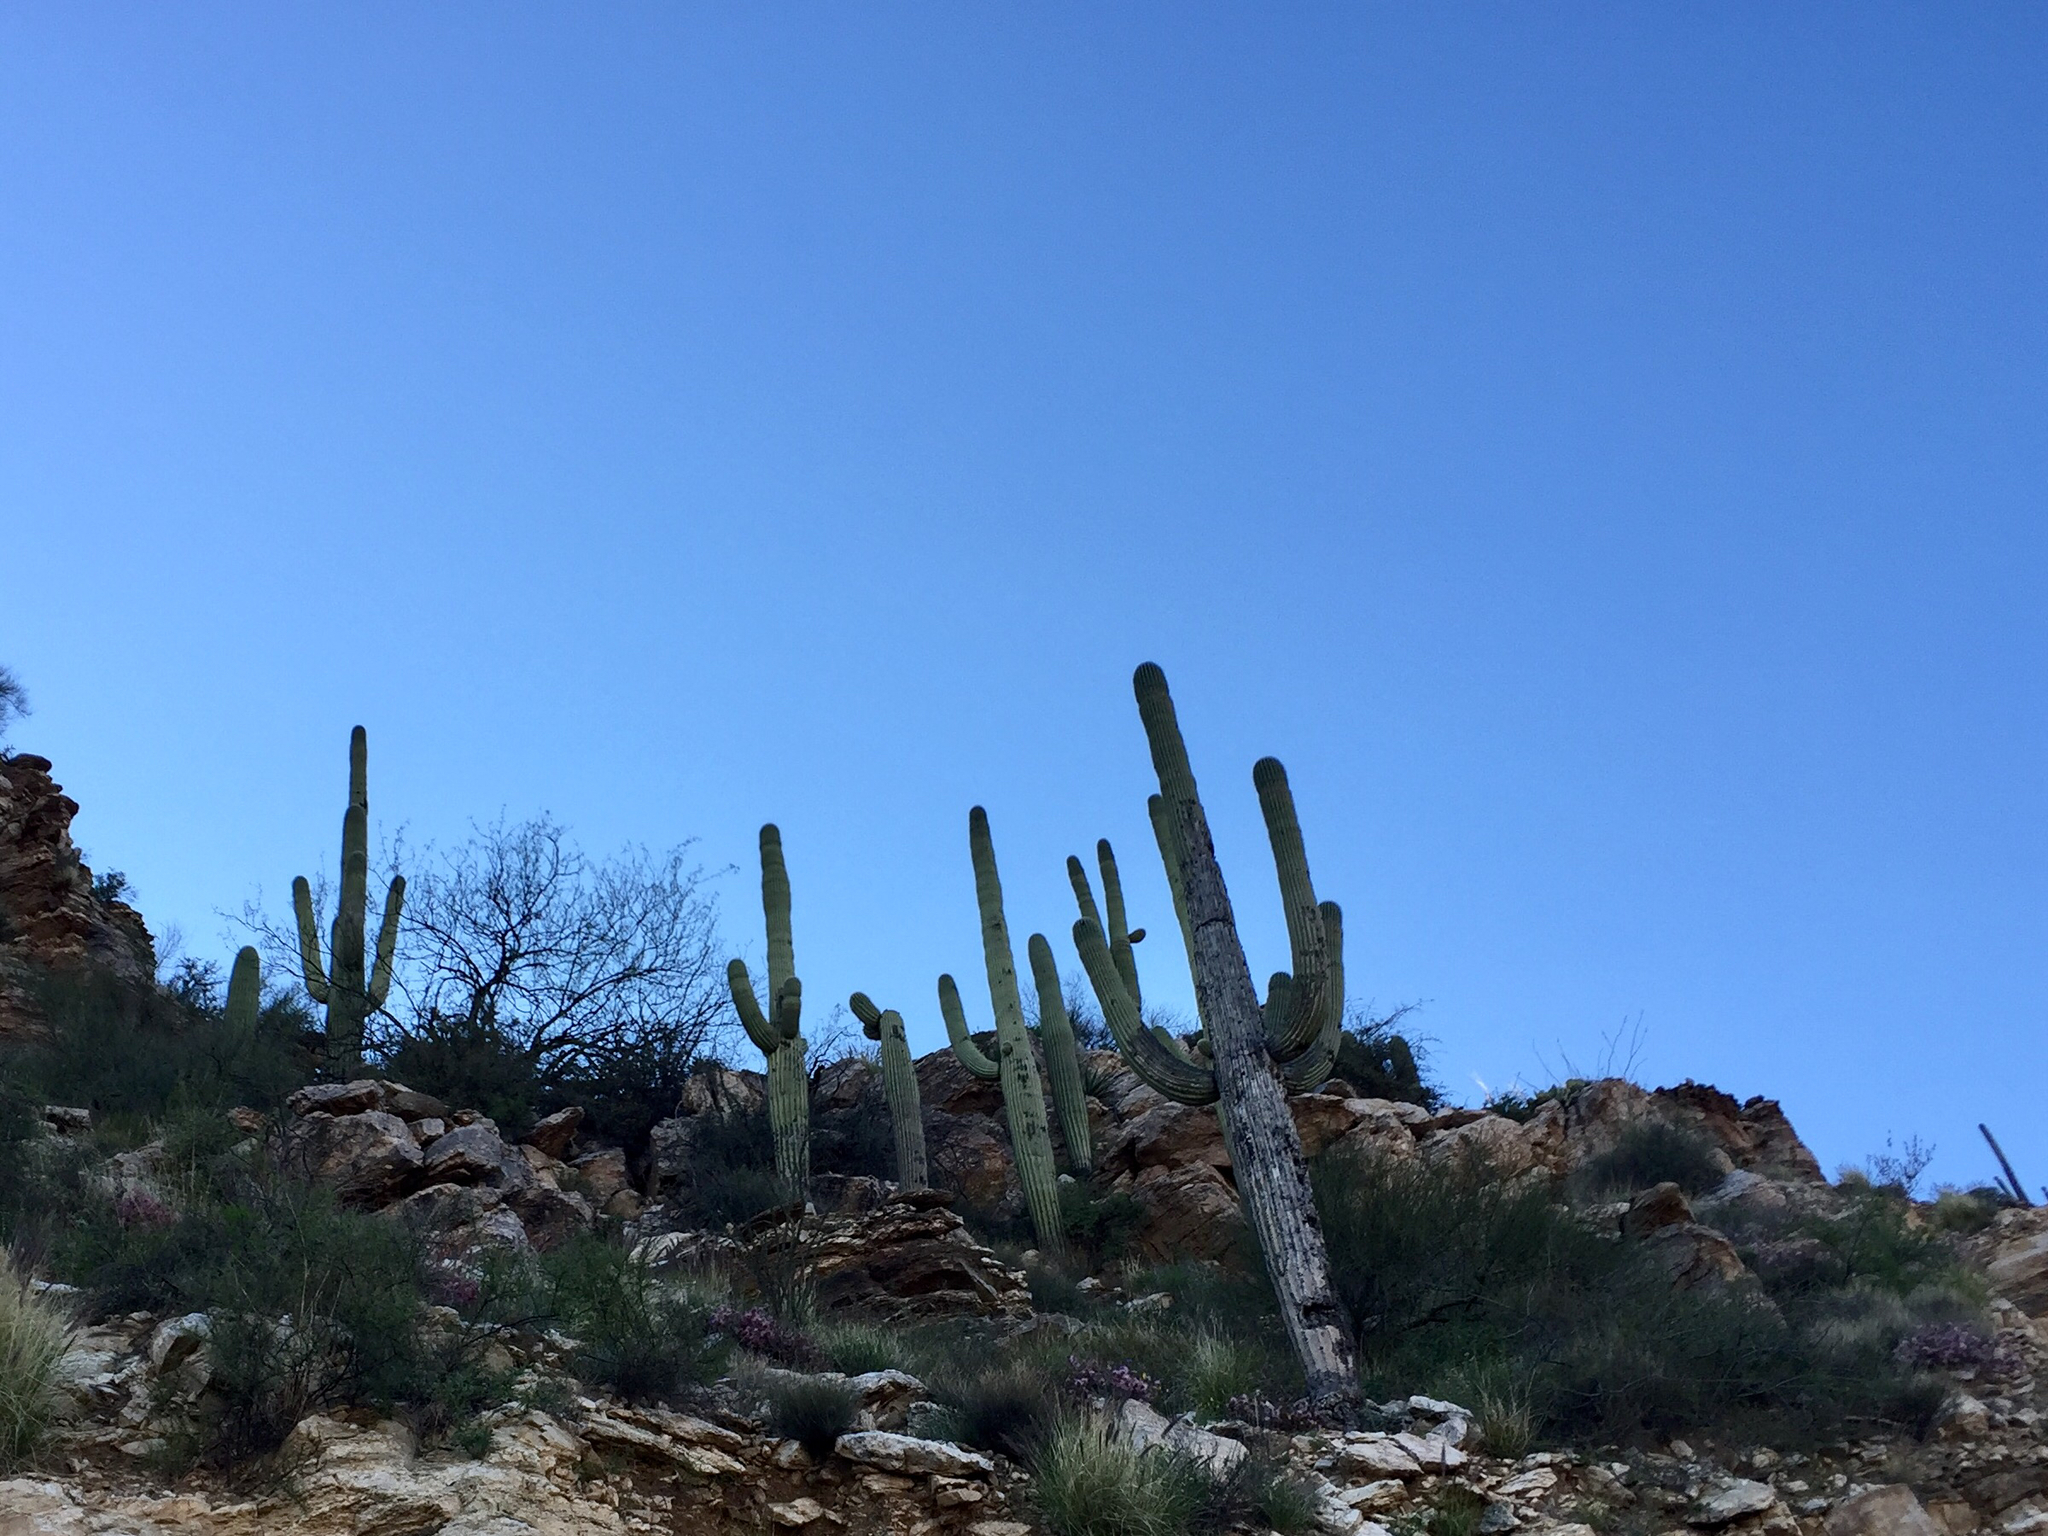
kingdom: Plantae
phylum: Tracheophyta
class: Magnoliopsida
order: Caryophyllales
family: Cactaceae
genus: Carnegiea
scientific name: Carnegiea gigantea
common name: Saguaro
